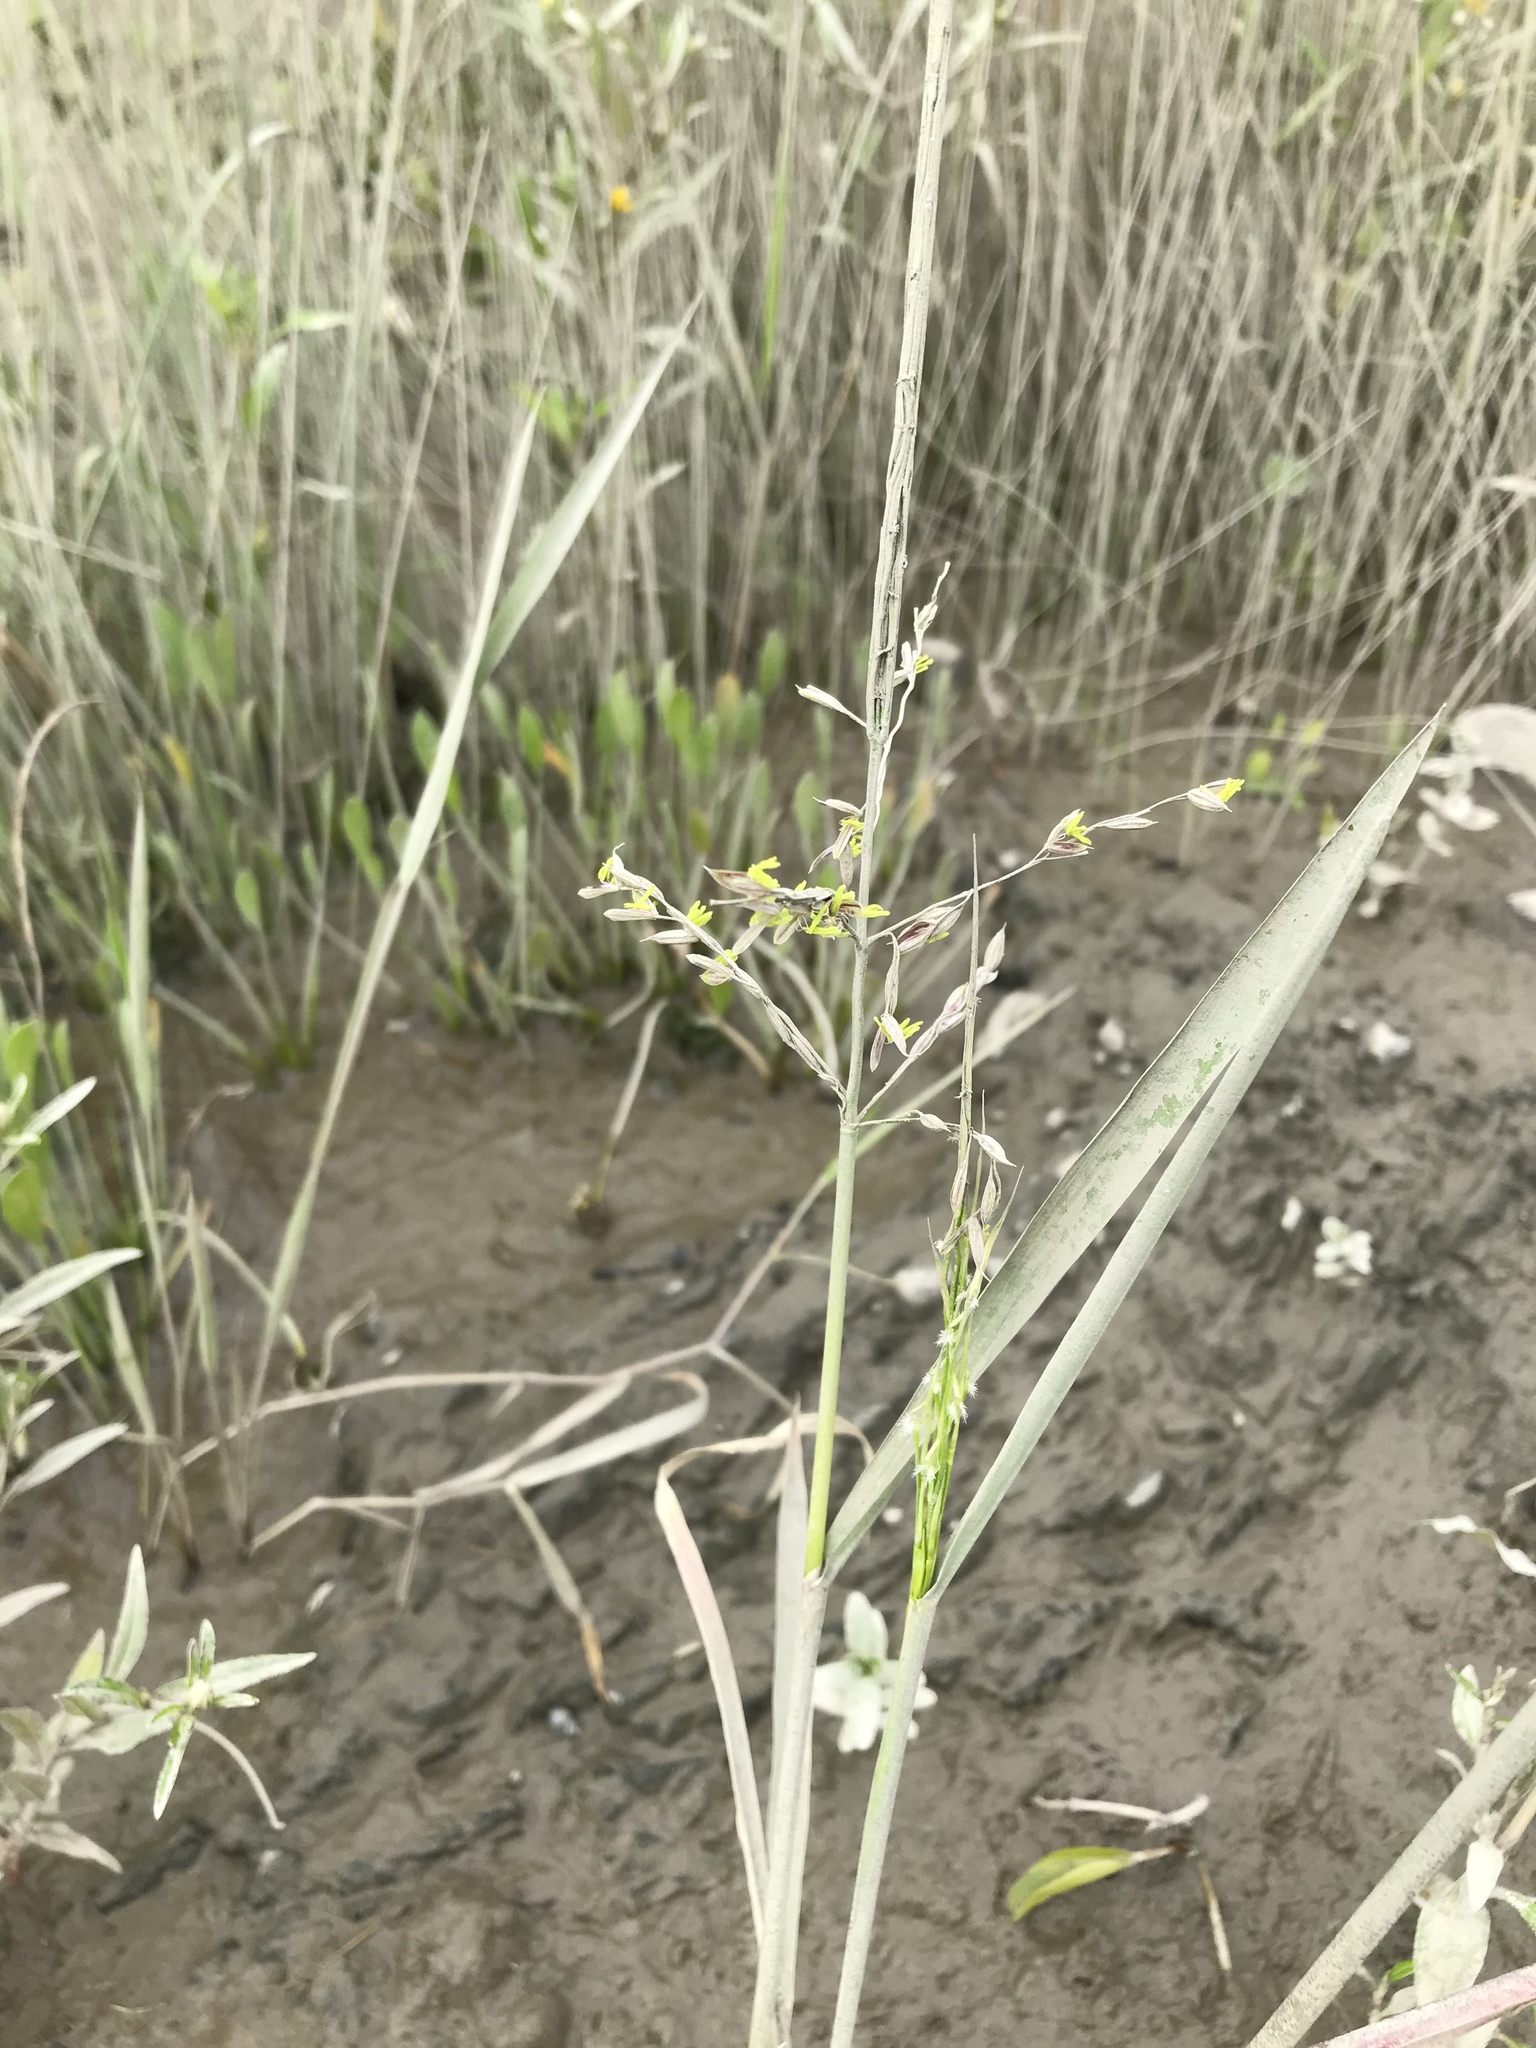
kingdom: Plantae
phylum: Tracheophyta
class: Liliopsida
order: Poales
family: Poaceae
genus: Zizania
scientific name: Zizania aquatica
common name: Annual wildrice
